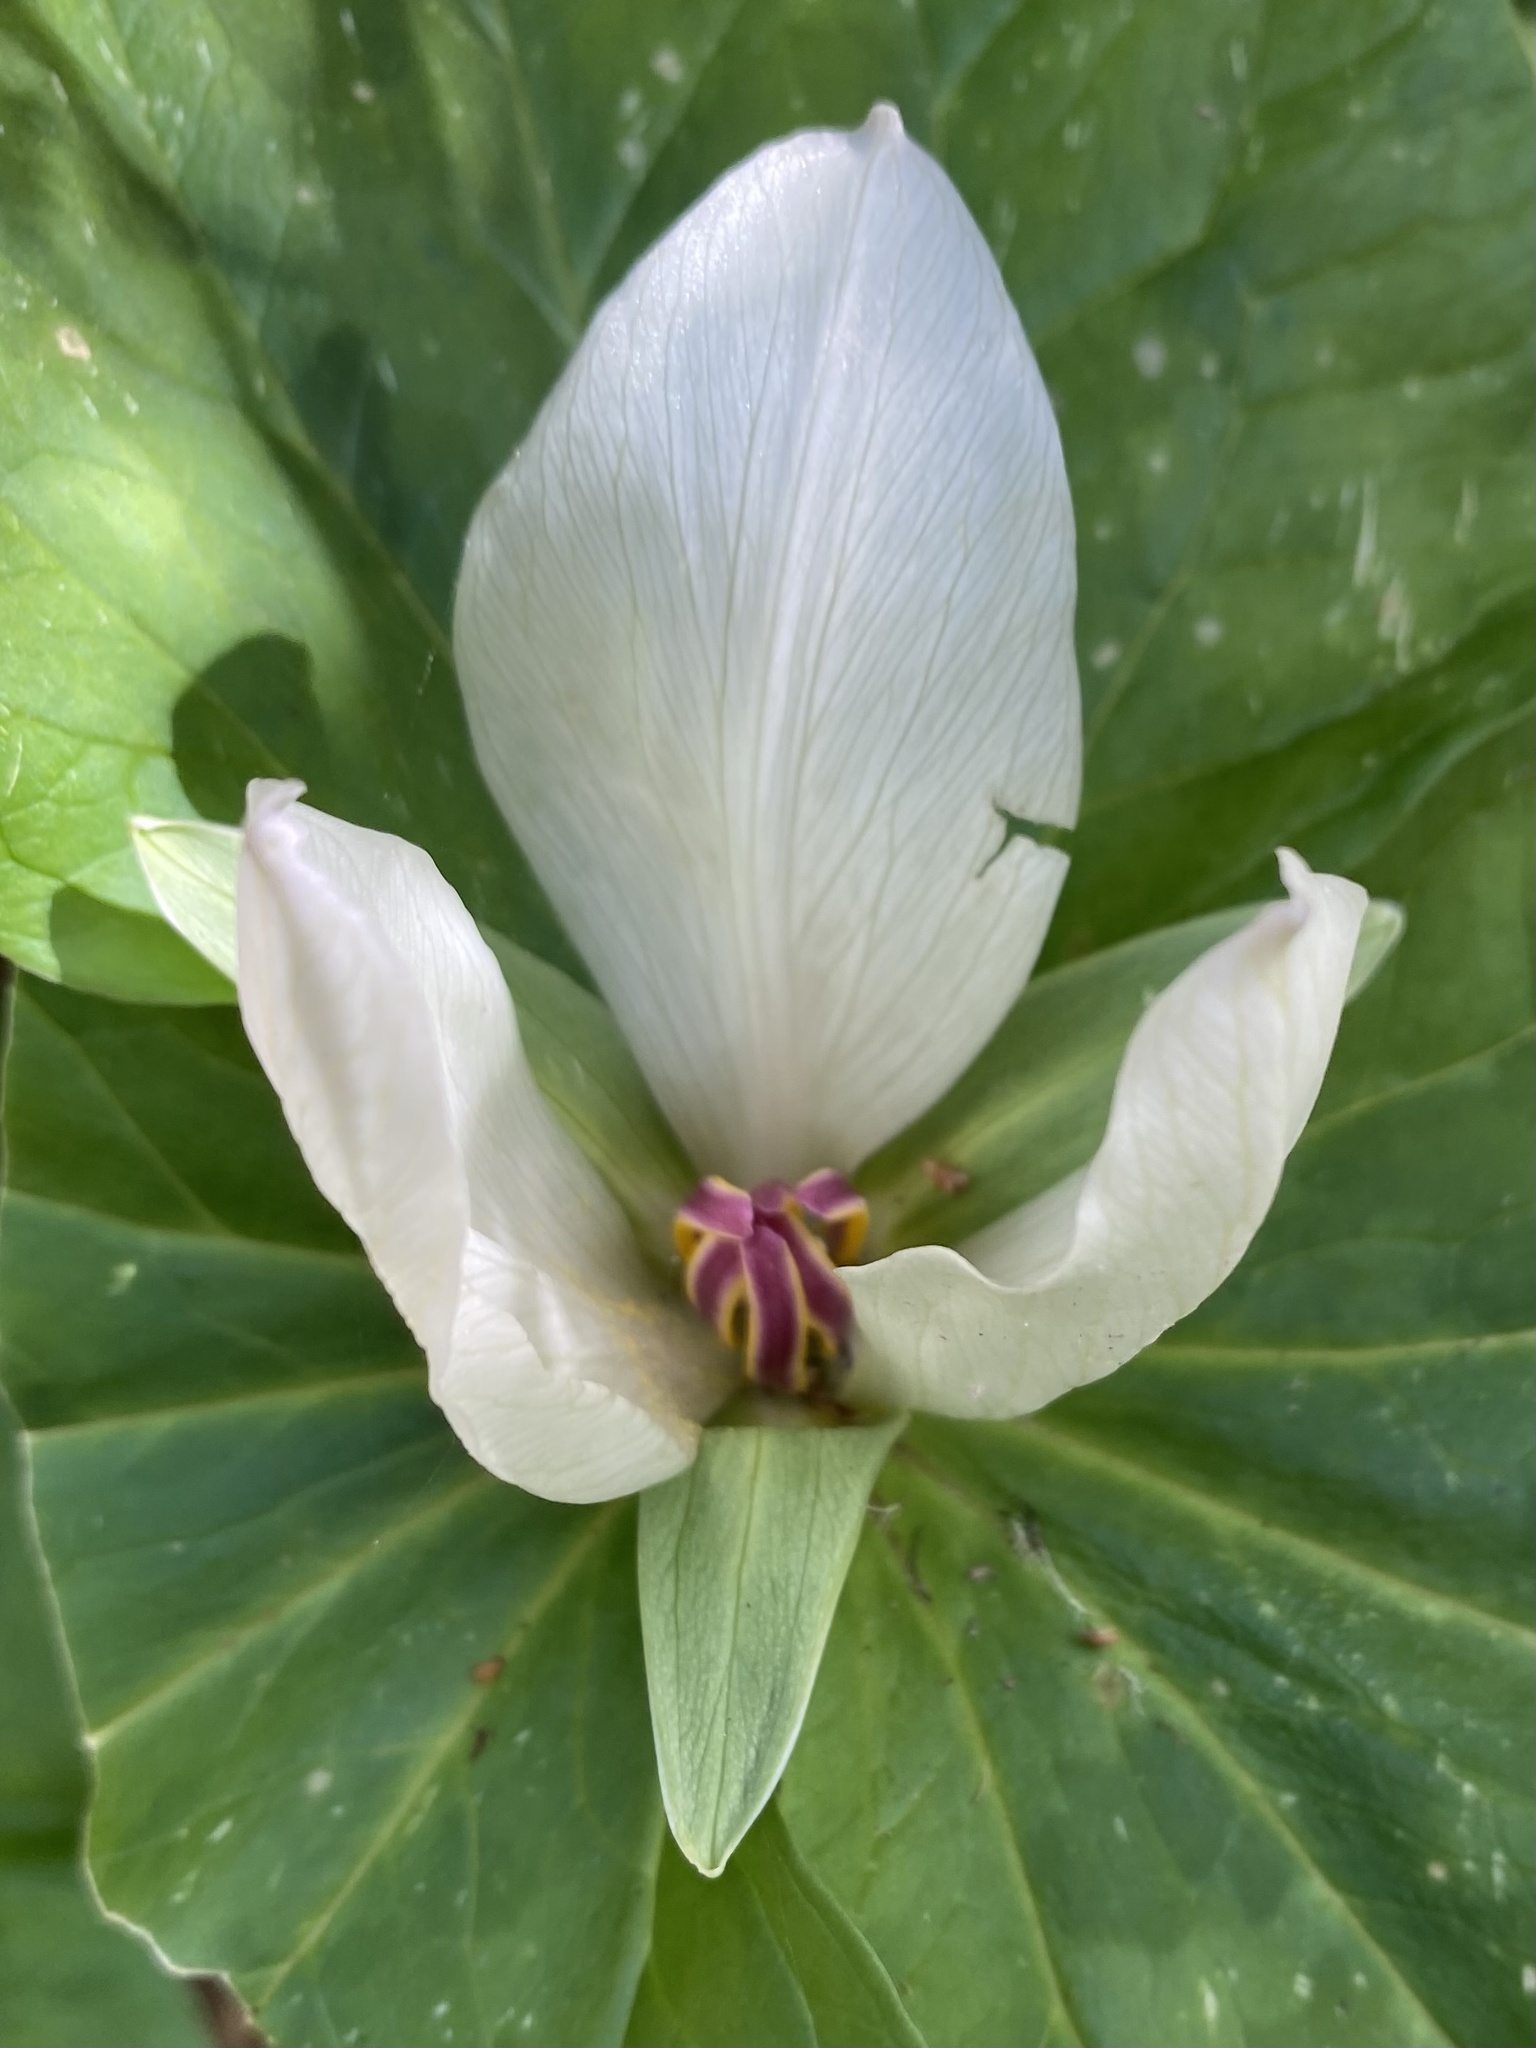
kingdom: Plantae
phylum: Tracheophyta
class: Liliopsida
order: Liliales
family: Melanthiaceae
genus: Trillium
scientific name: Trillium chloropetalum
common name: Giant trillium
